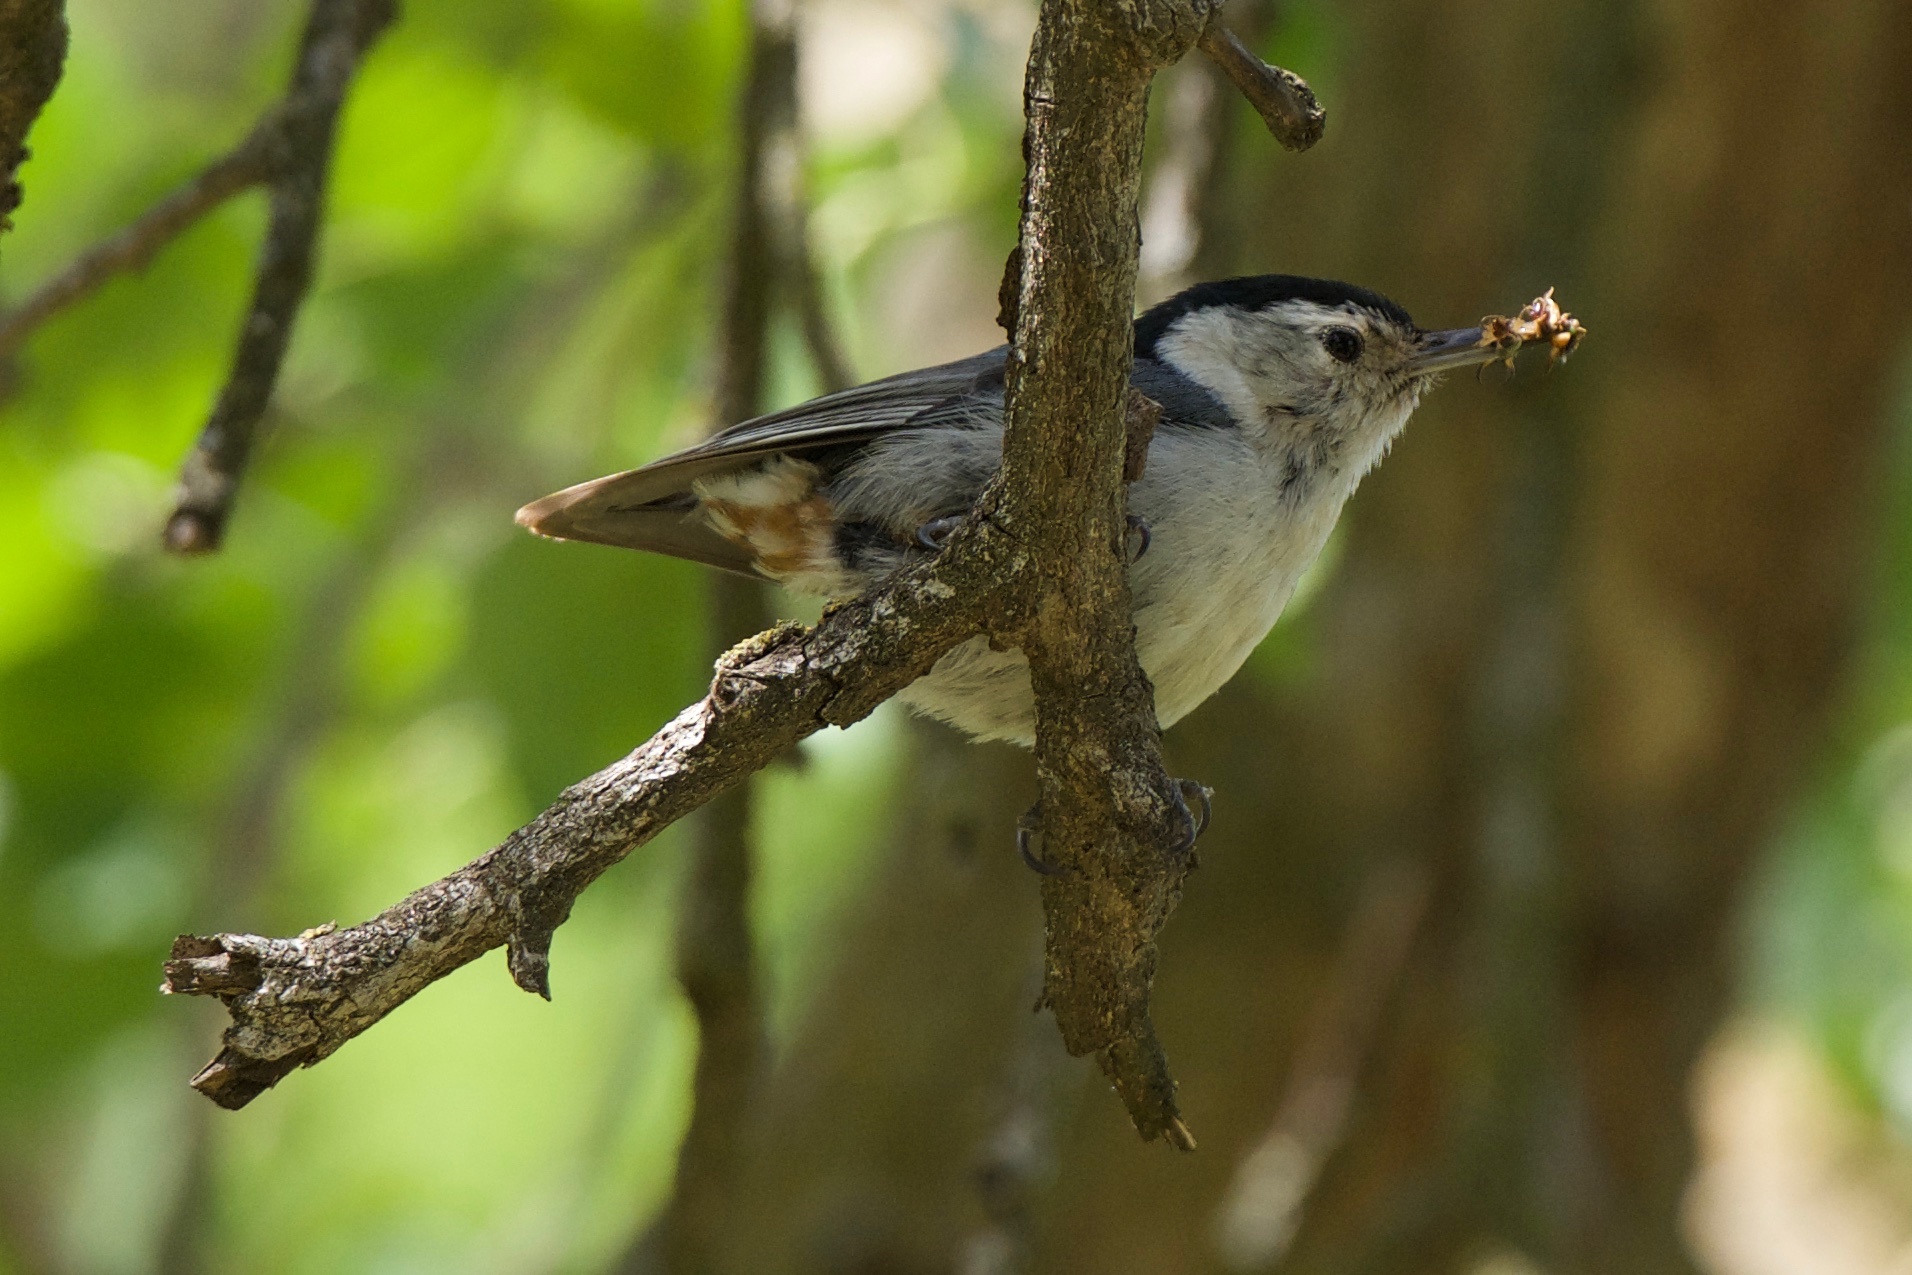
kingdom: Animalia
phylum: Chordata
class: Aves
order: Passeriformes
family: Sittidae
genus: Sitta
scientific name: Sitta carolinensis
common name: White-breasted nuthatch
